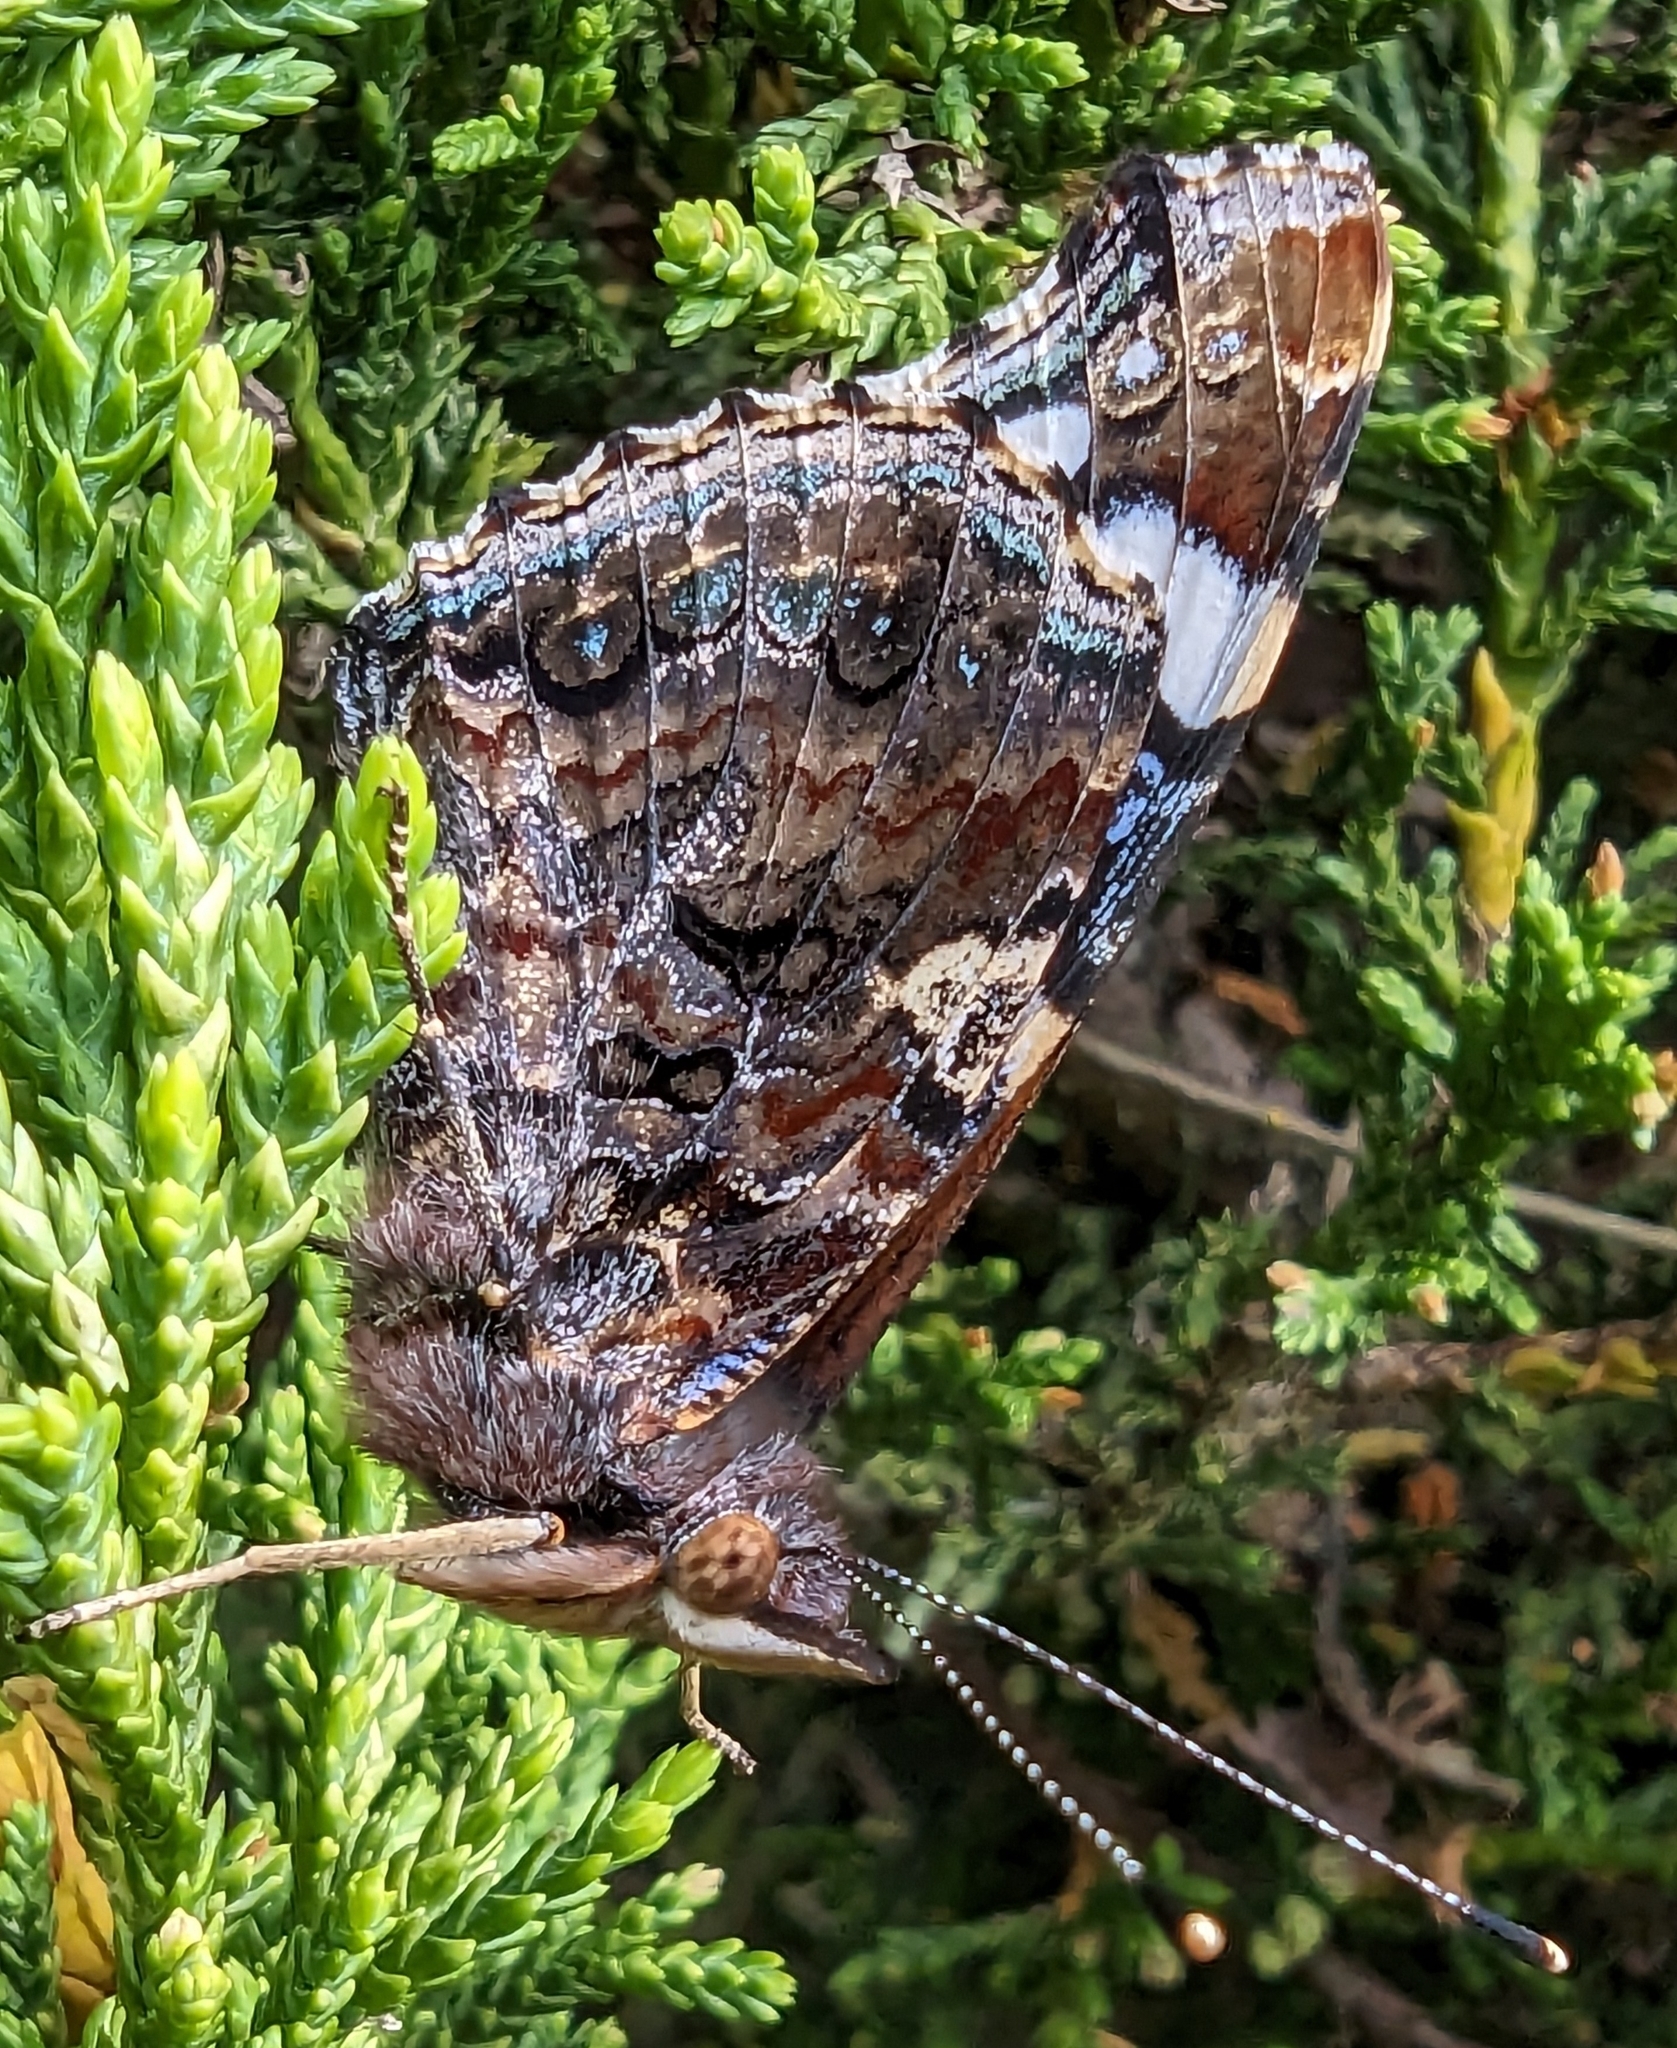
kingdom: Animalia
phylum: Arthropoda
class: Insecta
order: Lepidoptera
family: Nymphalidae
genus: Vanessa
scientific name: Vanessa atalanta
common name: Red admiral
